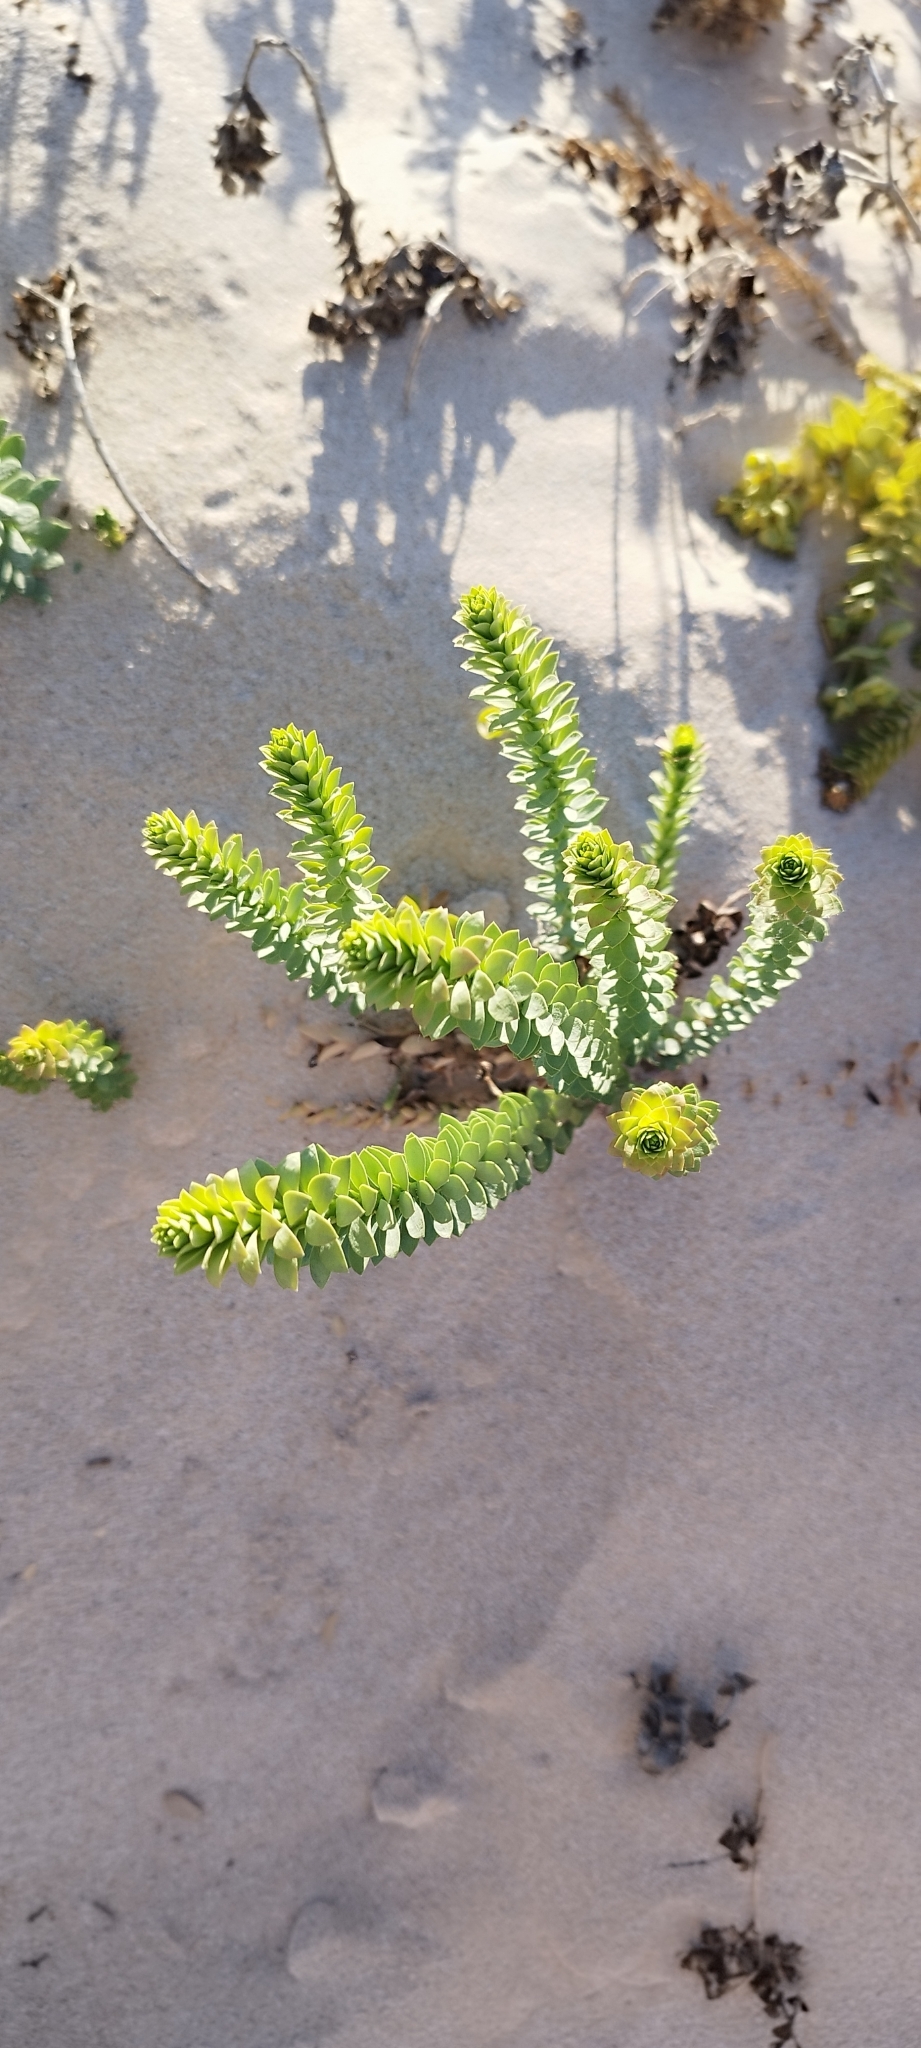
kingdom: Plantae
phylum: Tracheophyta
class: Magnoliopsida
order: Malpighiales
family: Euphorbiaceae
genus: Euphorbia
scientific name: Euphorbia paralias
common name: Sea spurge
